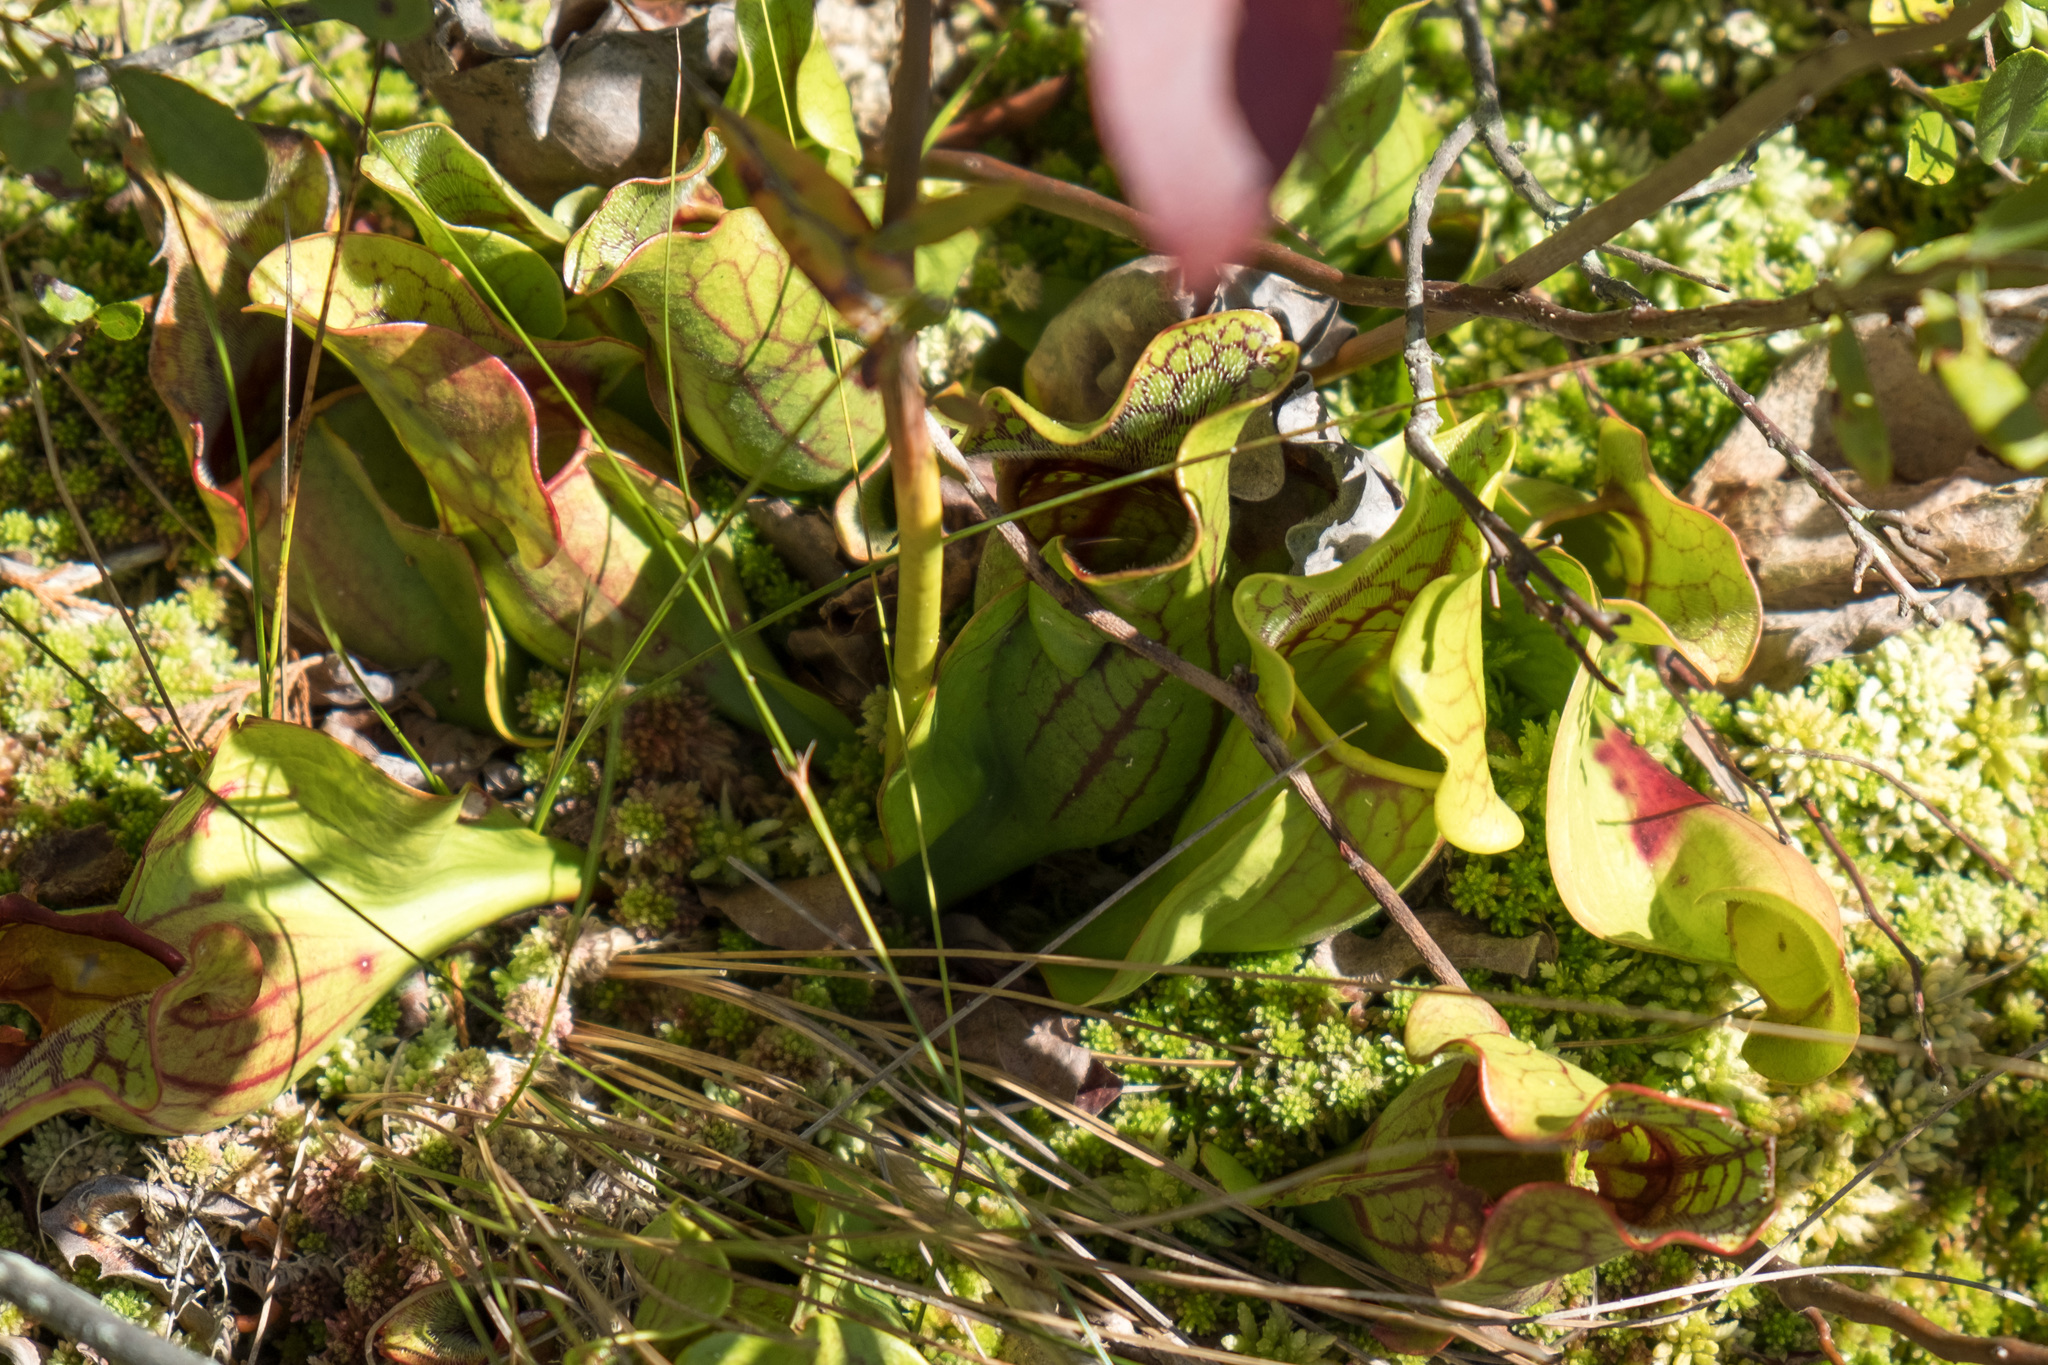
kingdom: Plantae
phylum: Tracheophyta
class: Magnoliopsida
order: Ericales
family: Sarraceniaceae
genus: Sarracenia
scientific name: Sarracenia purpurea
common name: Pitcherplant
